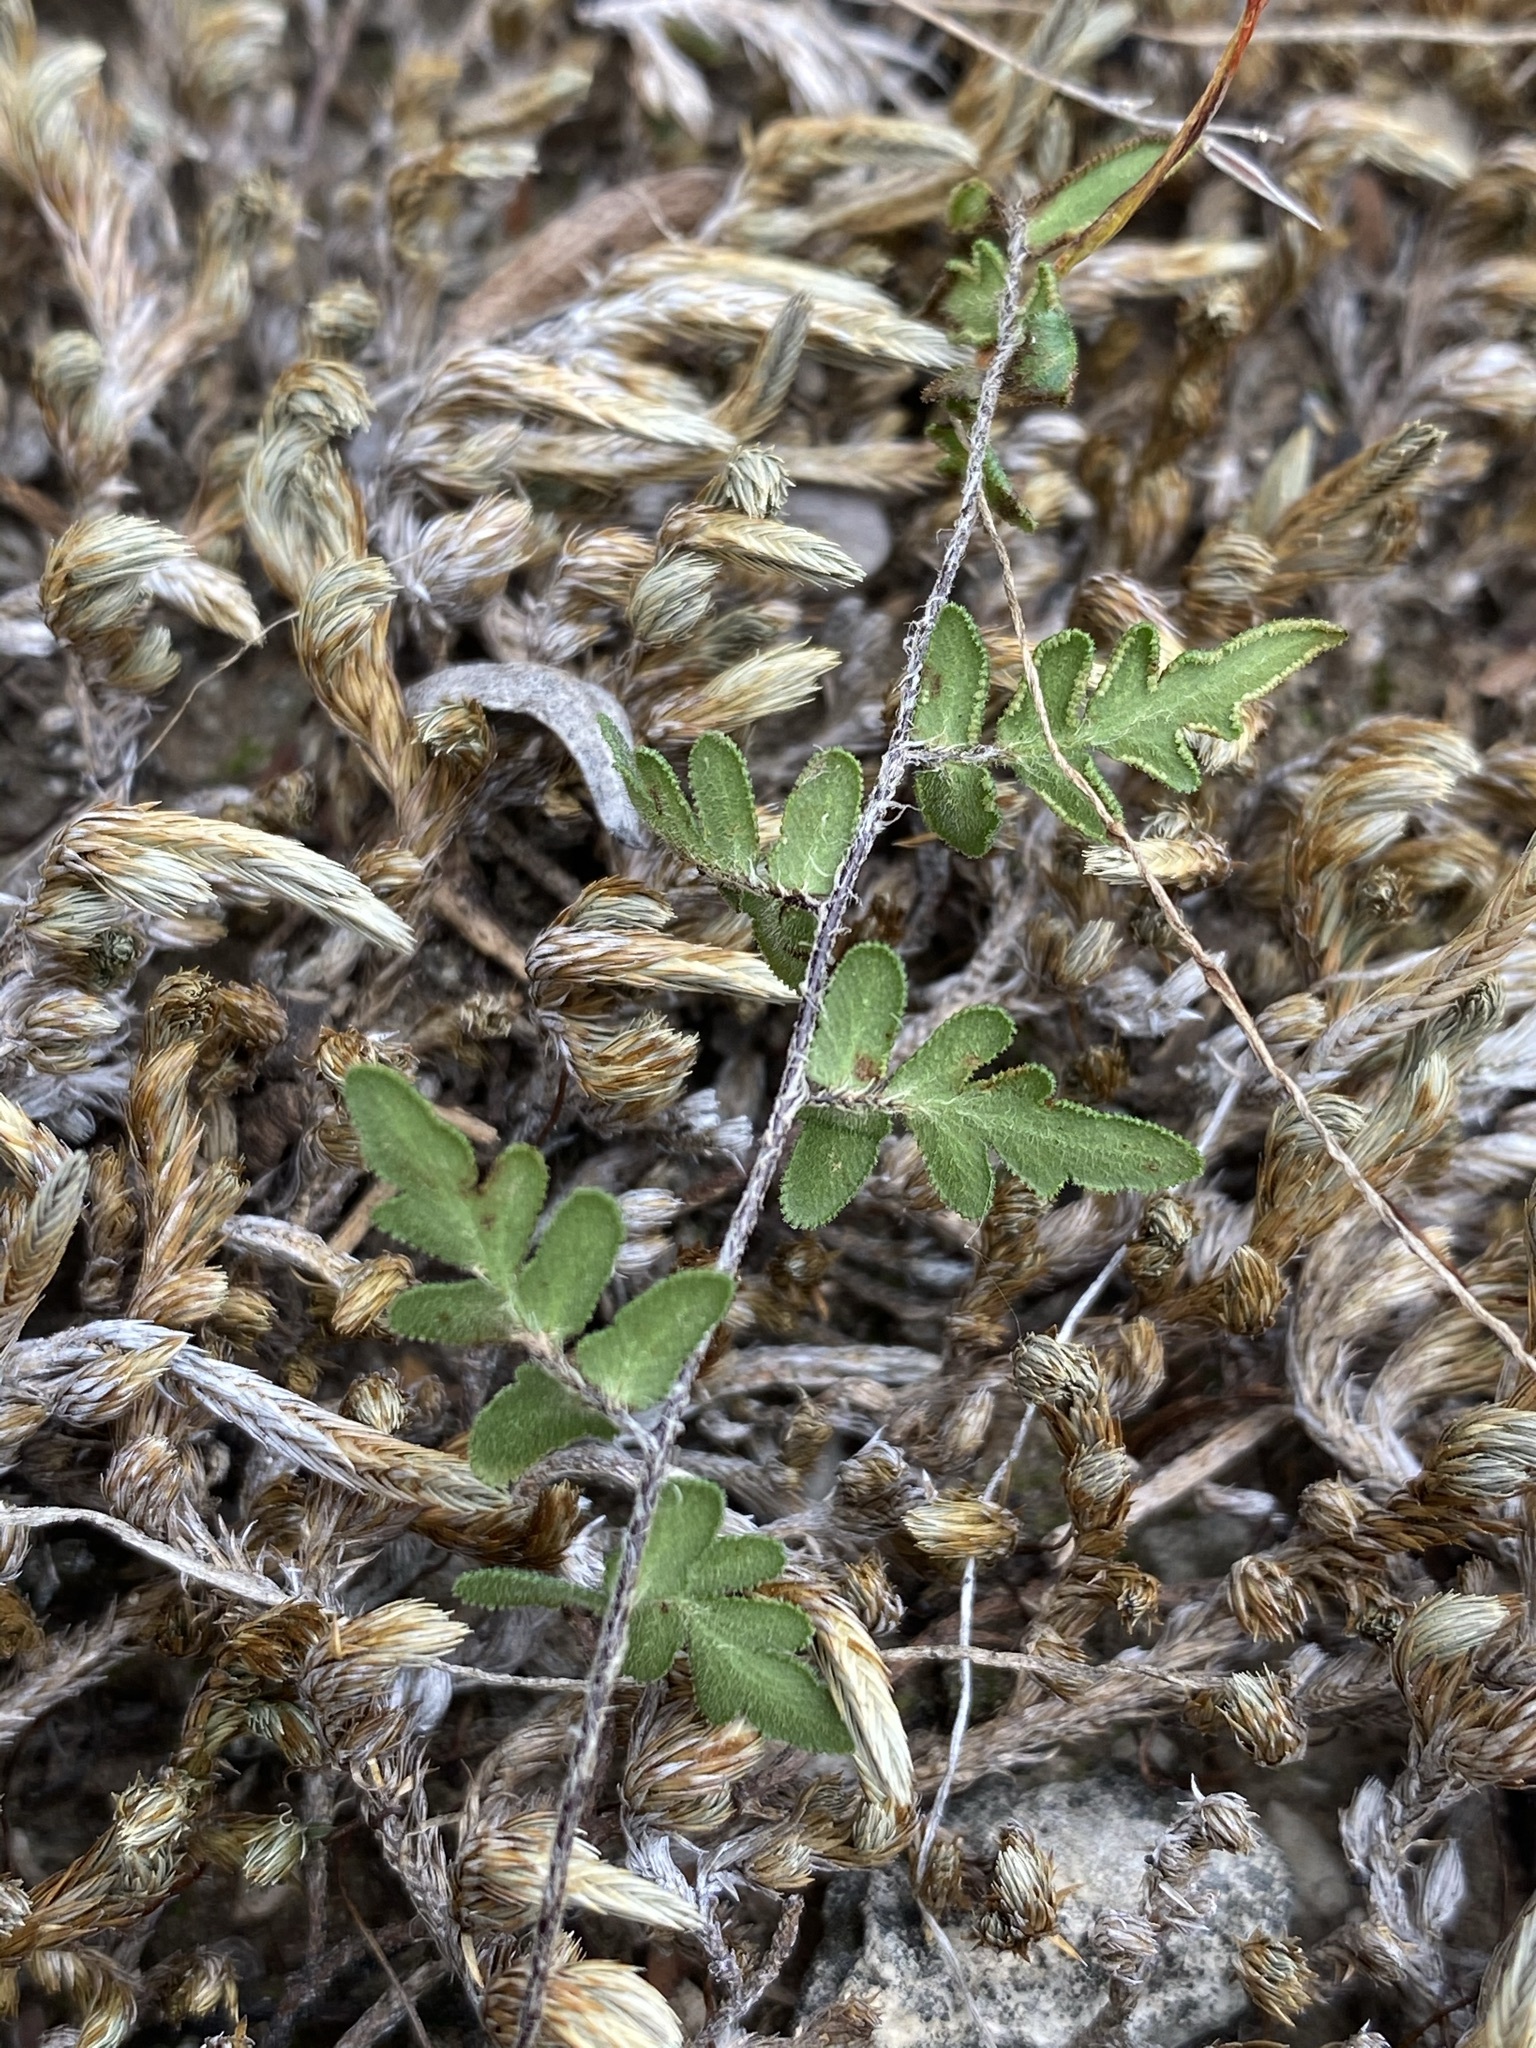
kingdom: Plantae
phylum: Tracheophyta
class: Polypodiopsida
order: Polypodiales
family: Pteridaceae
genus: Myriopteris
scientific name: Myriopteris scabra
